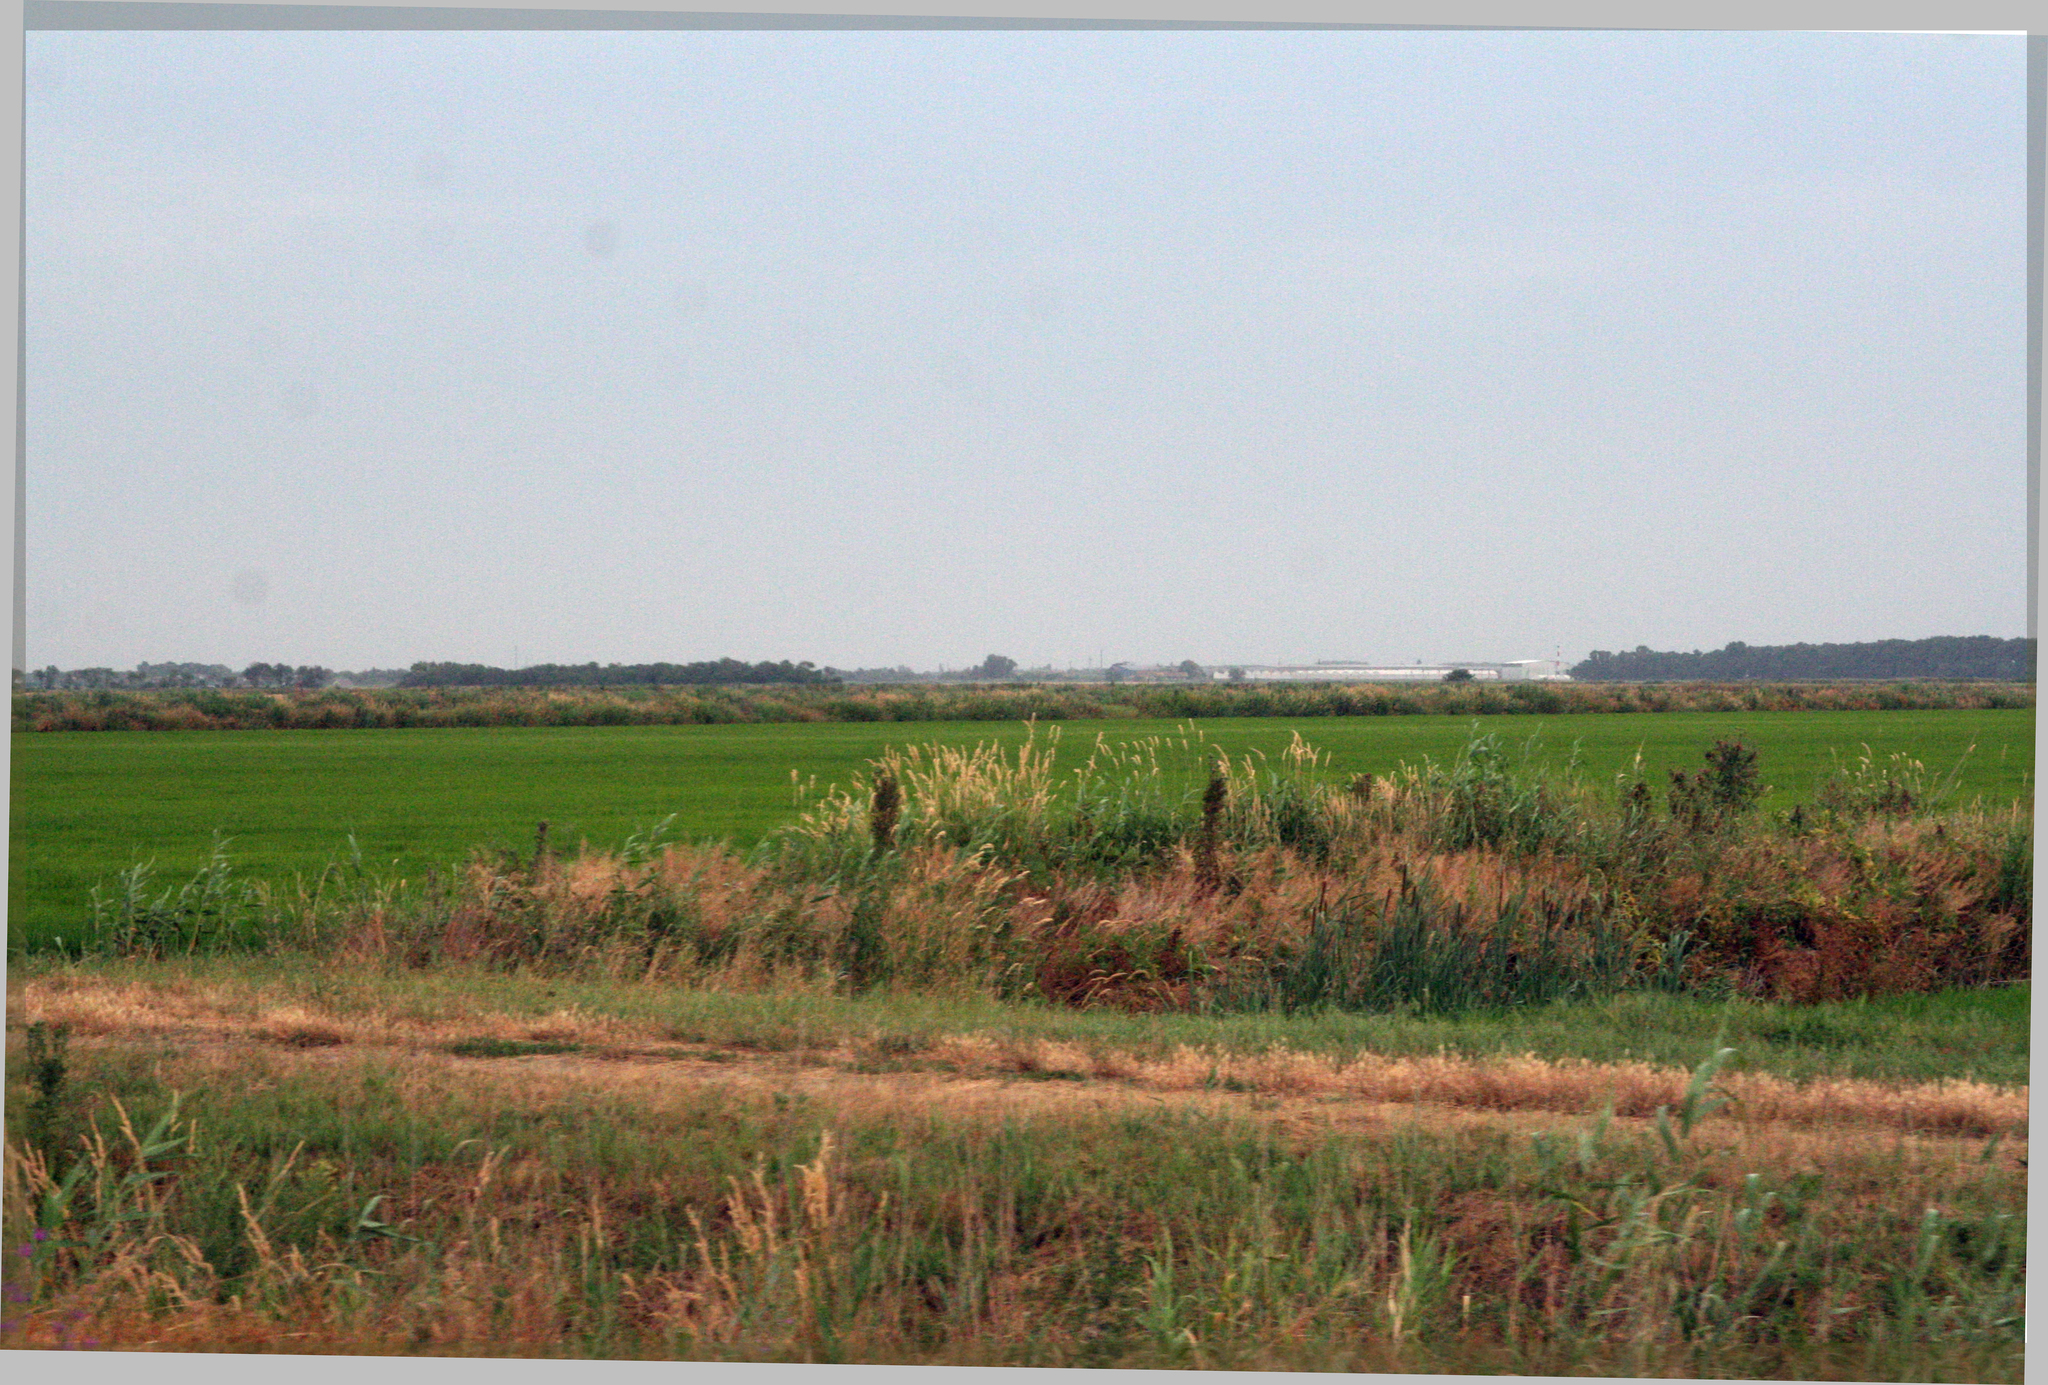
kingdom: Plantae
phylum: Tracheophyta
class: Liliopsida
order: Poales
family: Poaceae
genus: Phragmites
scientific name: Phragmites australis
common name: Common reed
